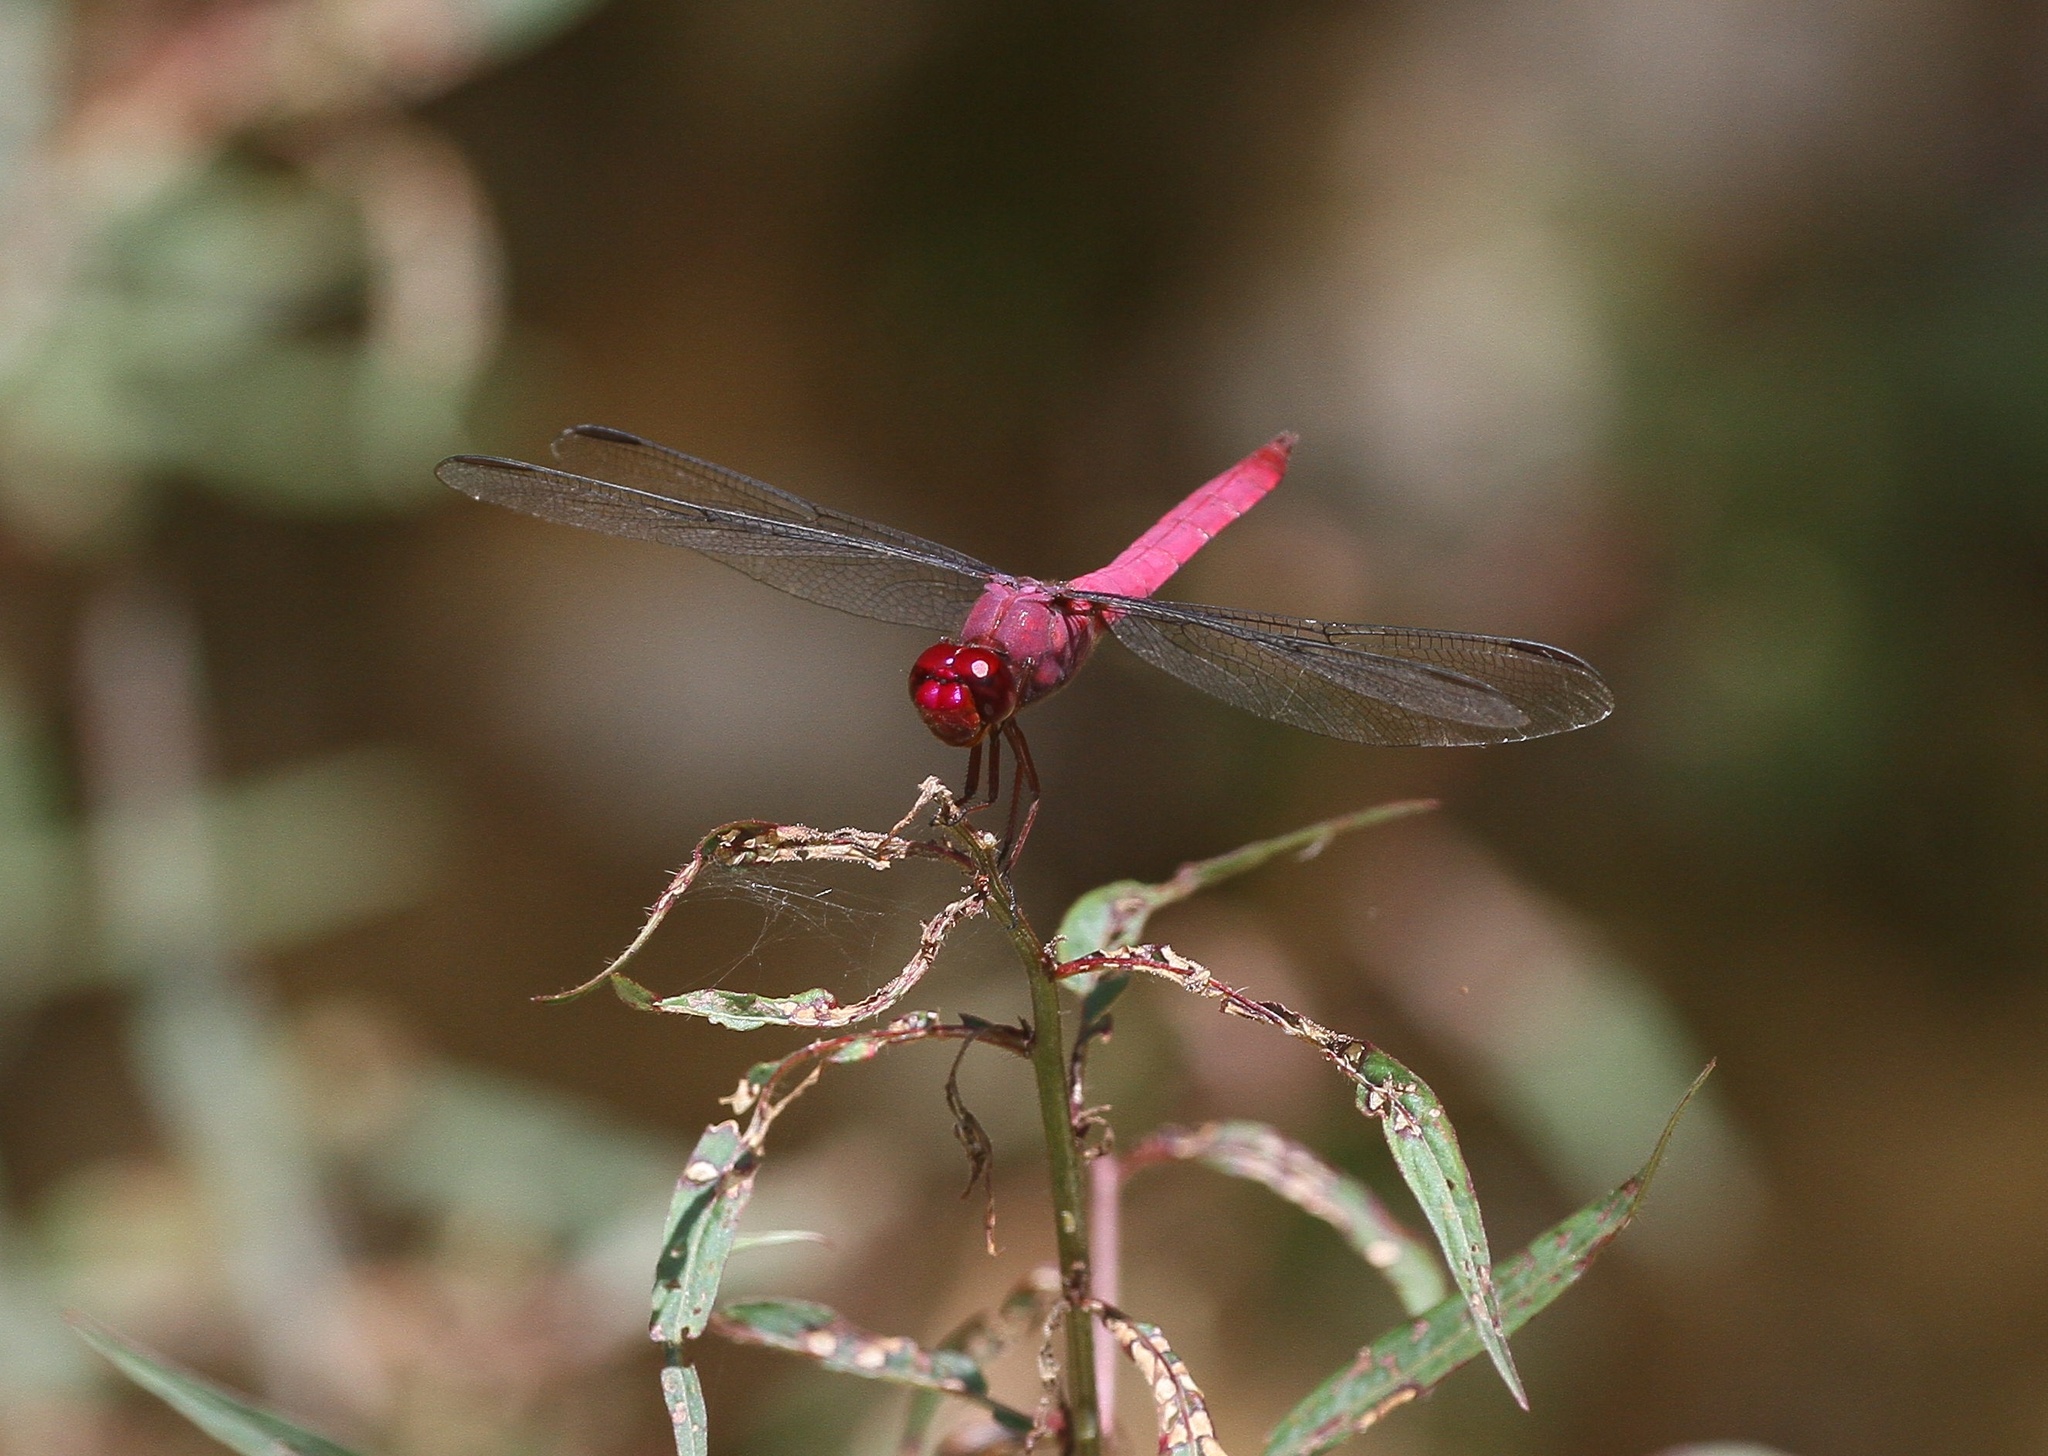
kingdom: Animalia
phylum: Arthropoda
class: Insecta
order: Odonata
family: Libellulidae
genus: Orthemis
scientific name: Orthemis discolor
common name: Carmine skimmer
